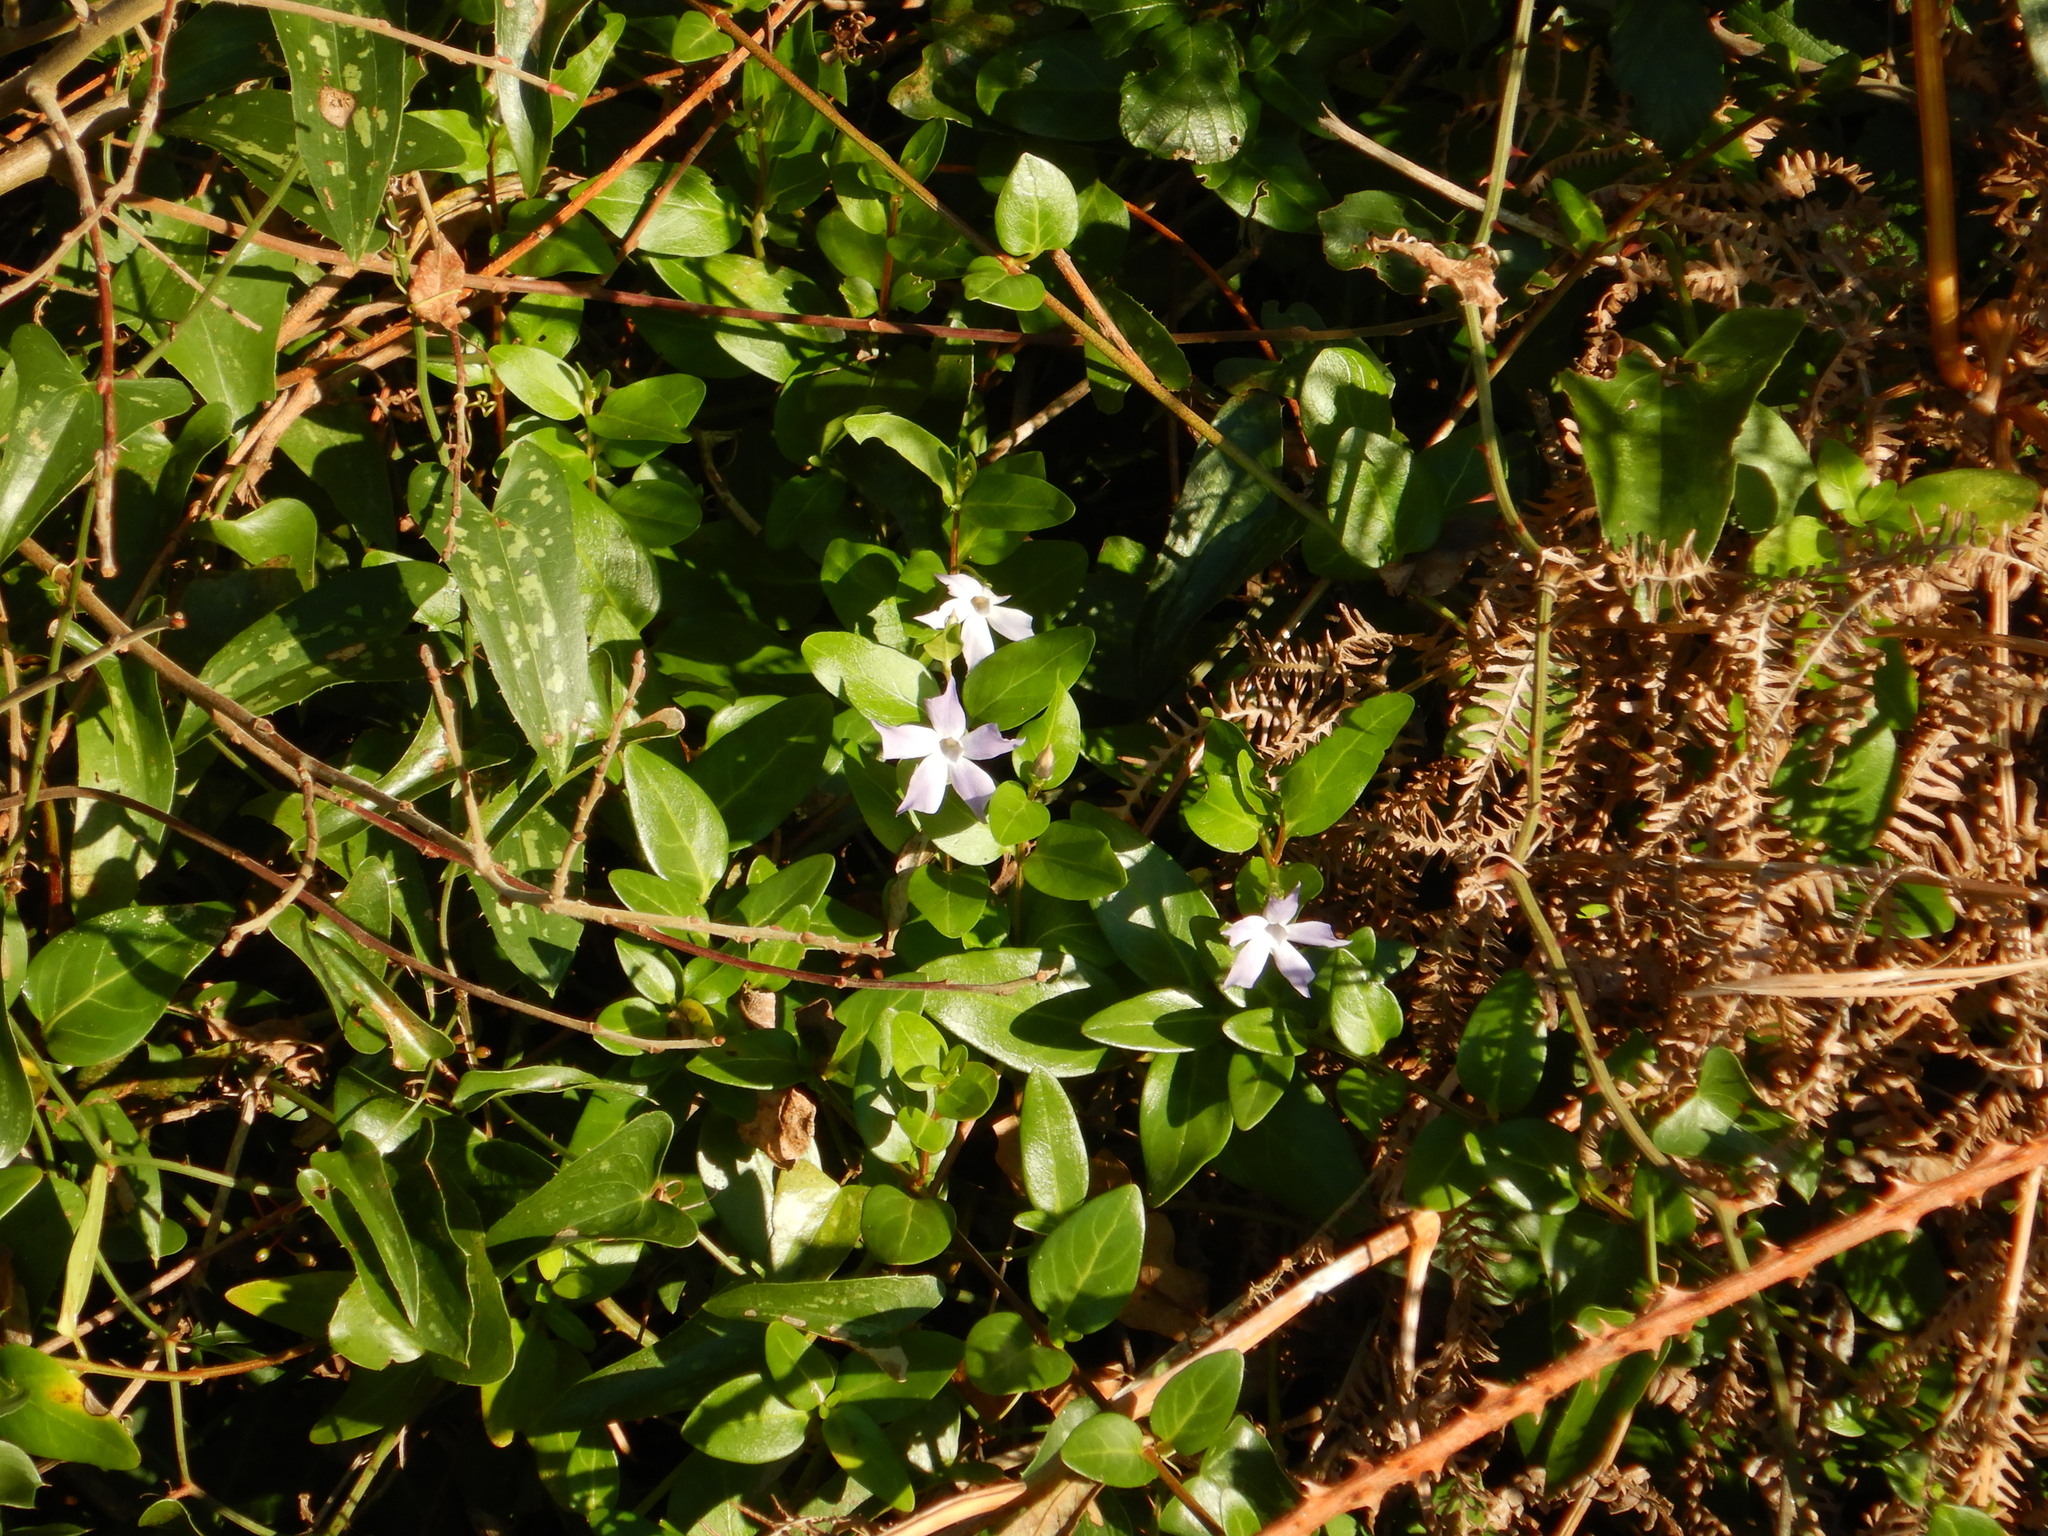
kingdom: Plantae
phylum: Tracheophyta
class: Magnoliopsida
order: Gentianales
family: Apocynaceae
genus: Vinca
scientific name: Vinca difformis
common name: Intermediate periwinkle
